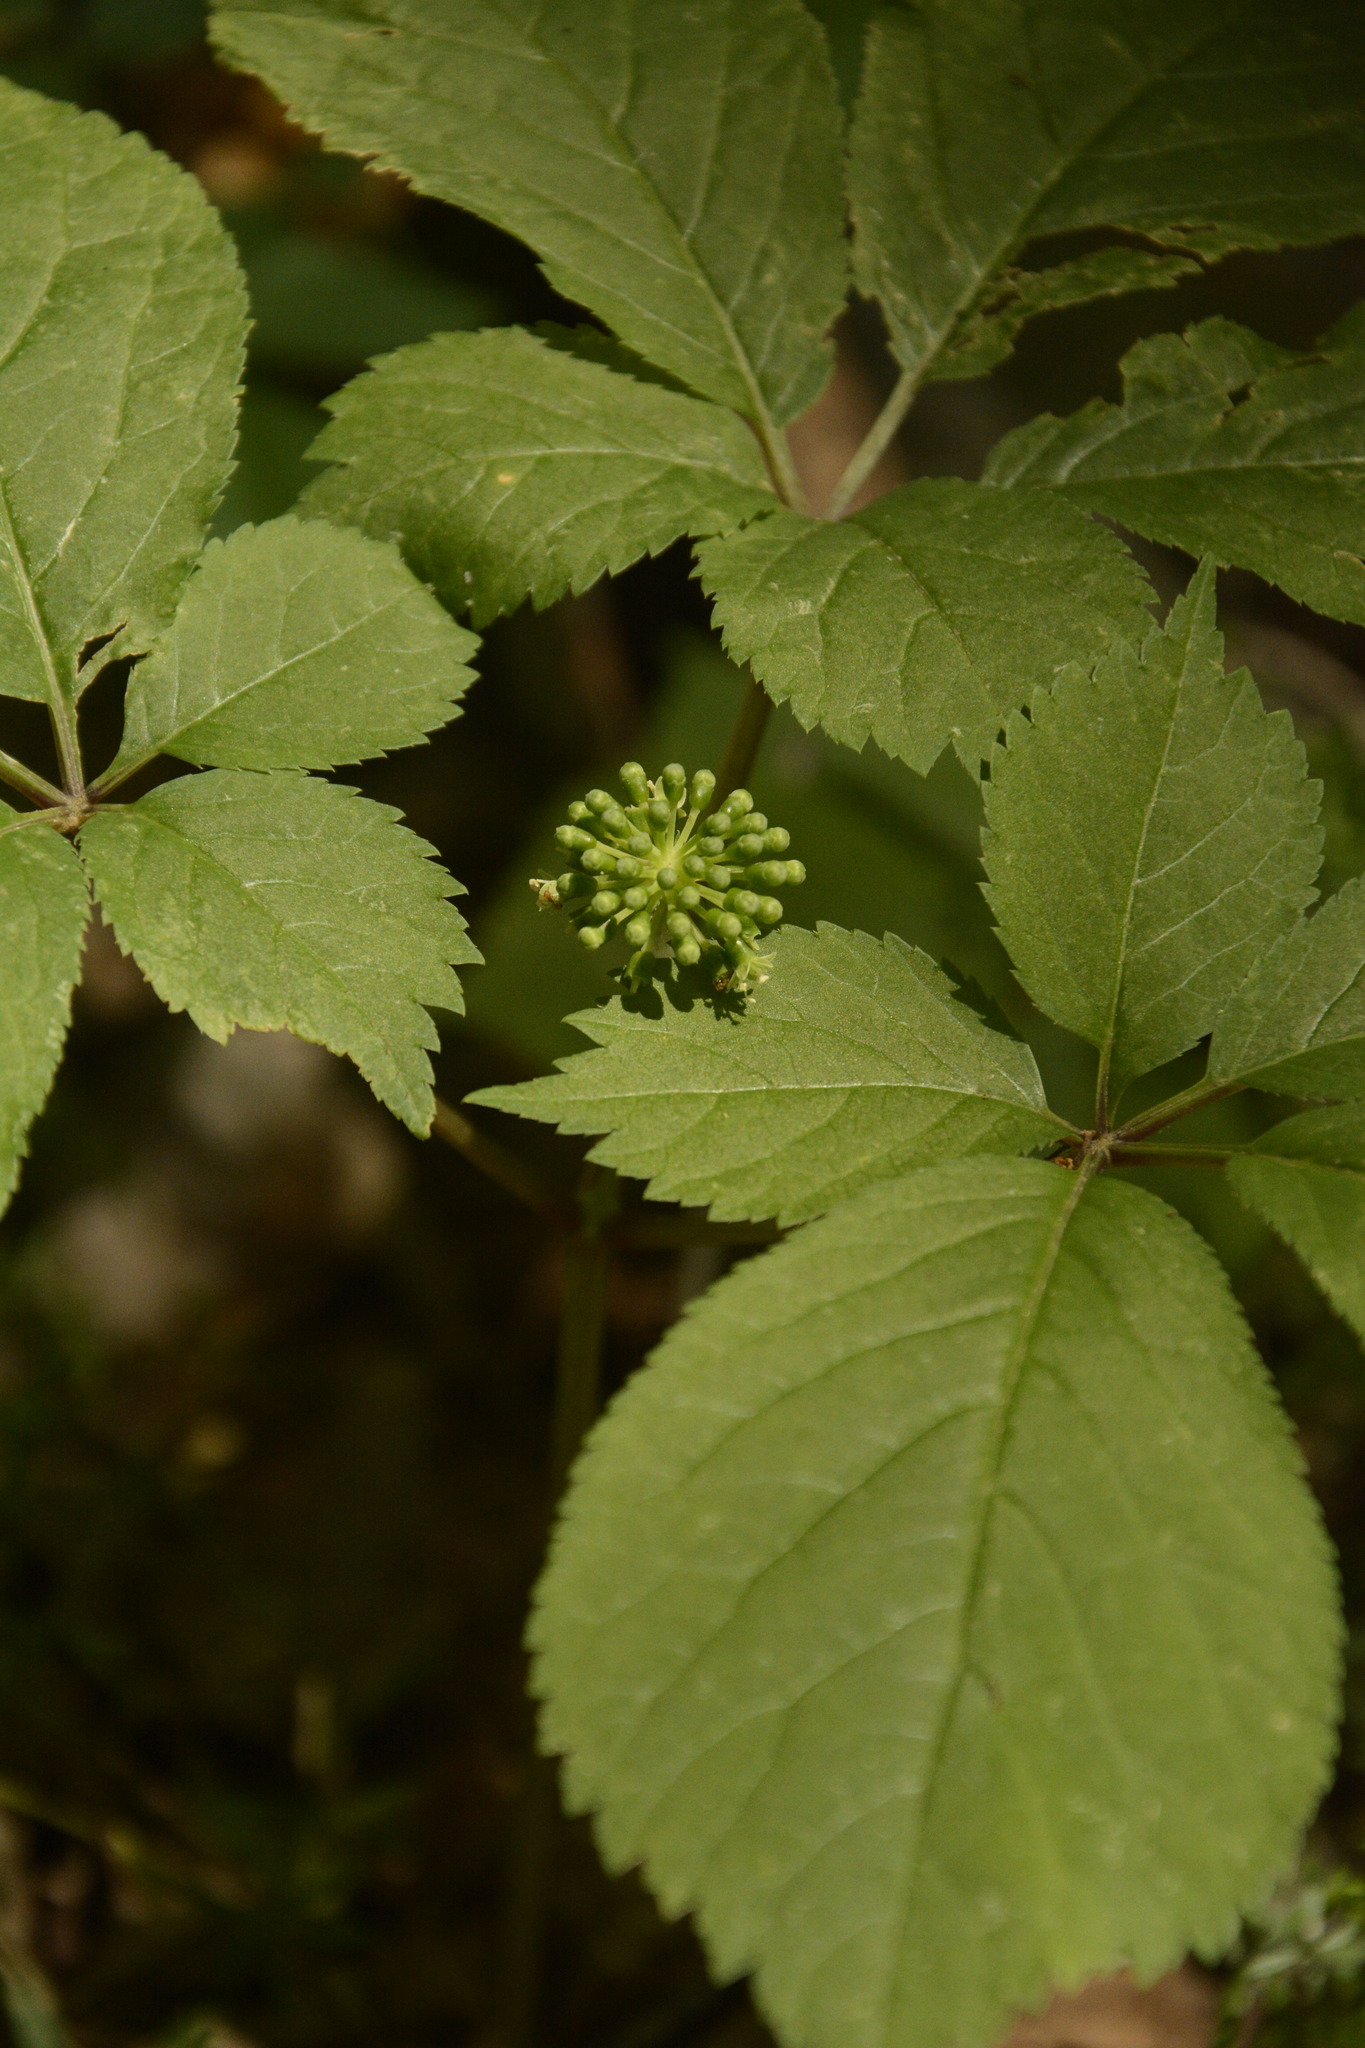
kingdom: Plantae
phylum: Tracheophyta
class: Magnoliopsida
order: Apiales
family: Araliaceae
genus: Panax
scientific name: Panax quinquefolius
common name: American ginseng
